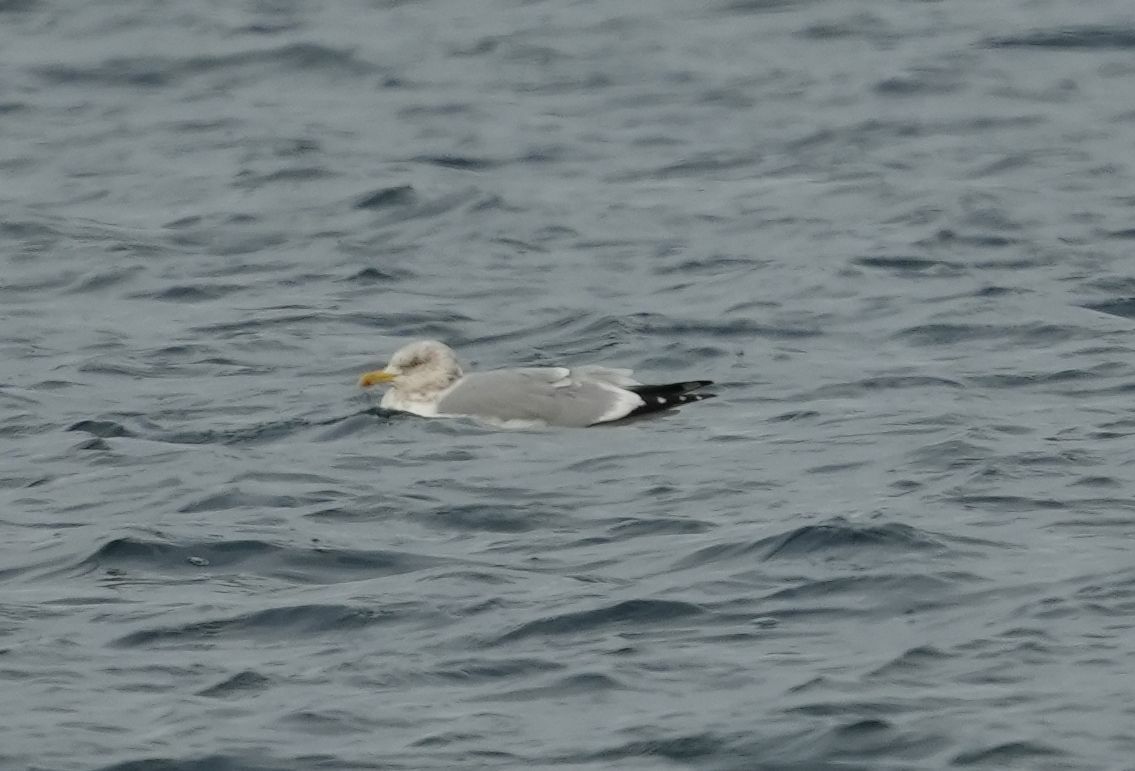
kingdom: Animalia
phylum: Chordata
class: Aves
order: Charadriiformes
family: Laridae
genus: Larus
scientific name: Larus argentatus
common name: Herring gull
